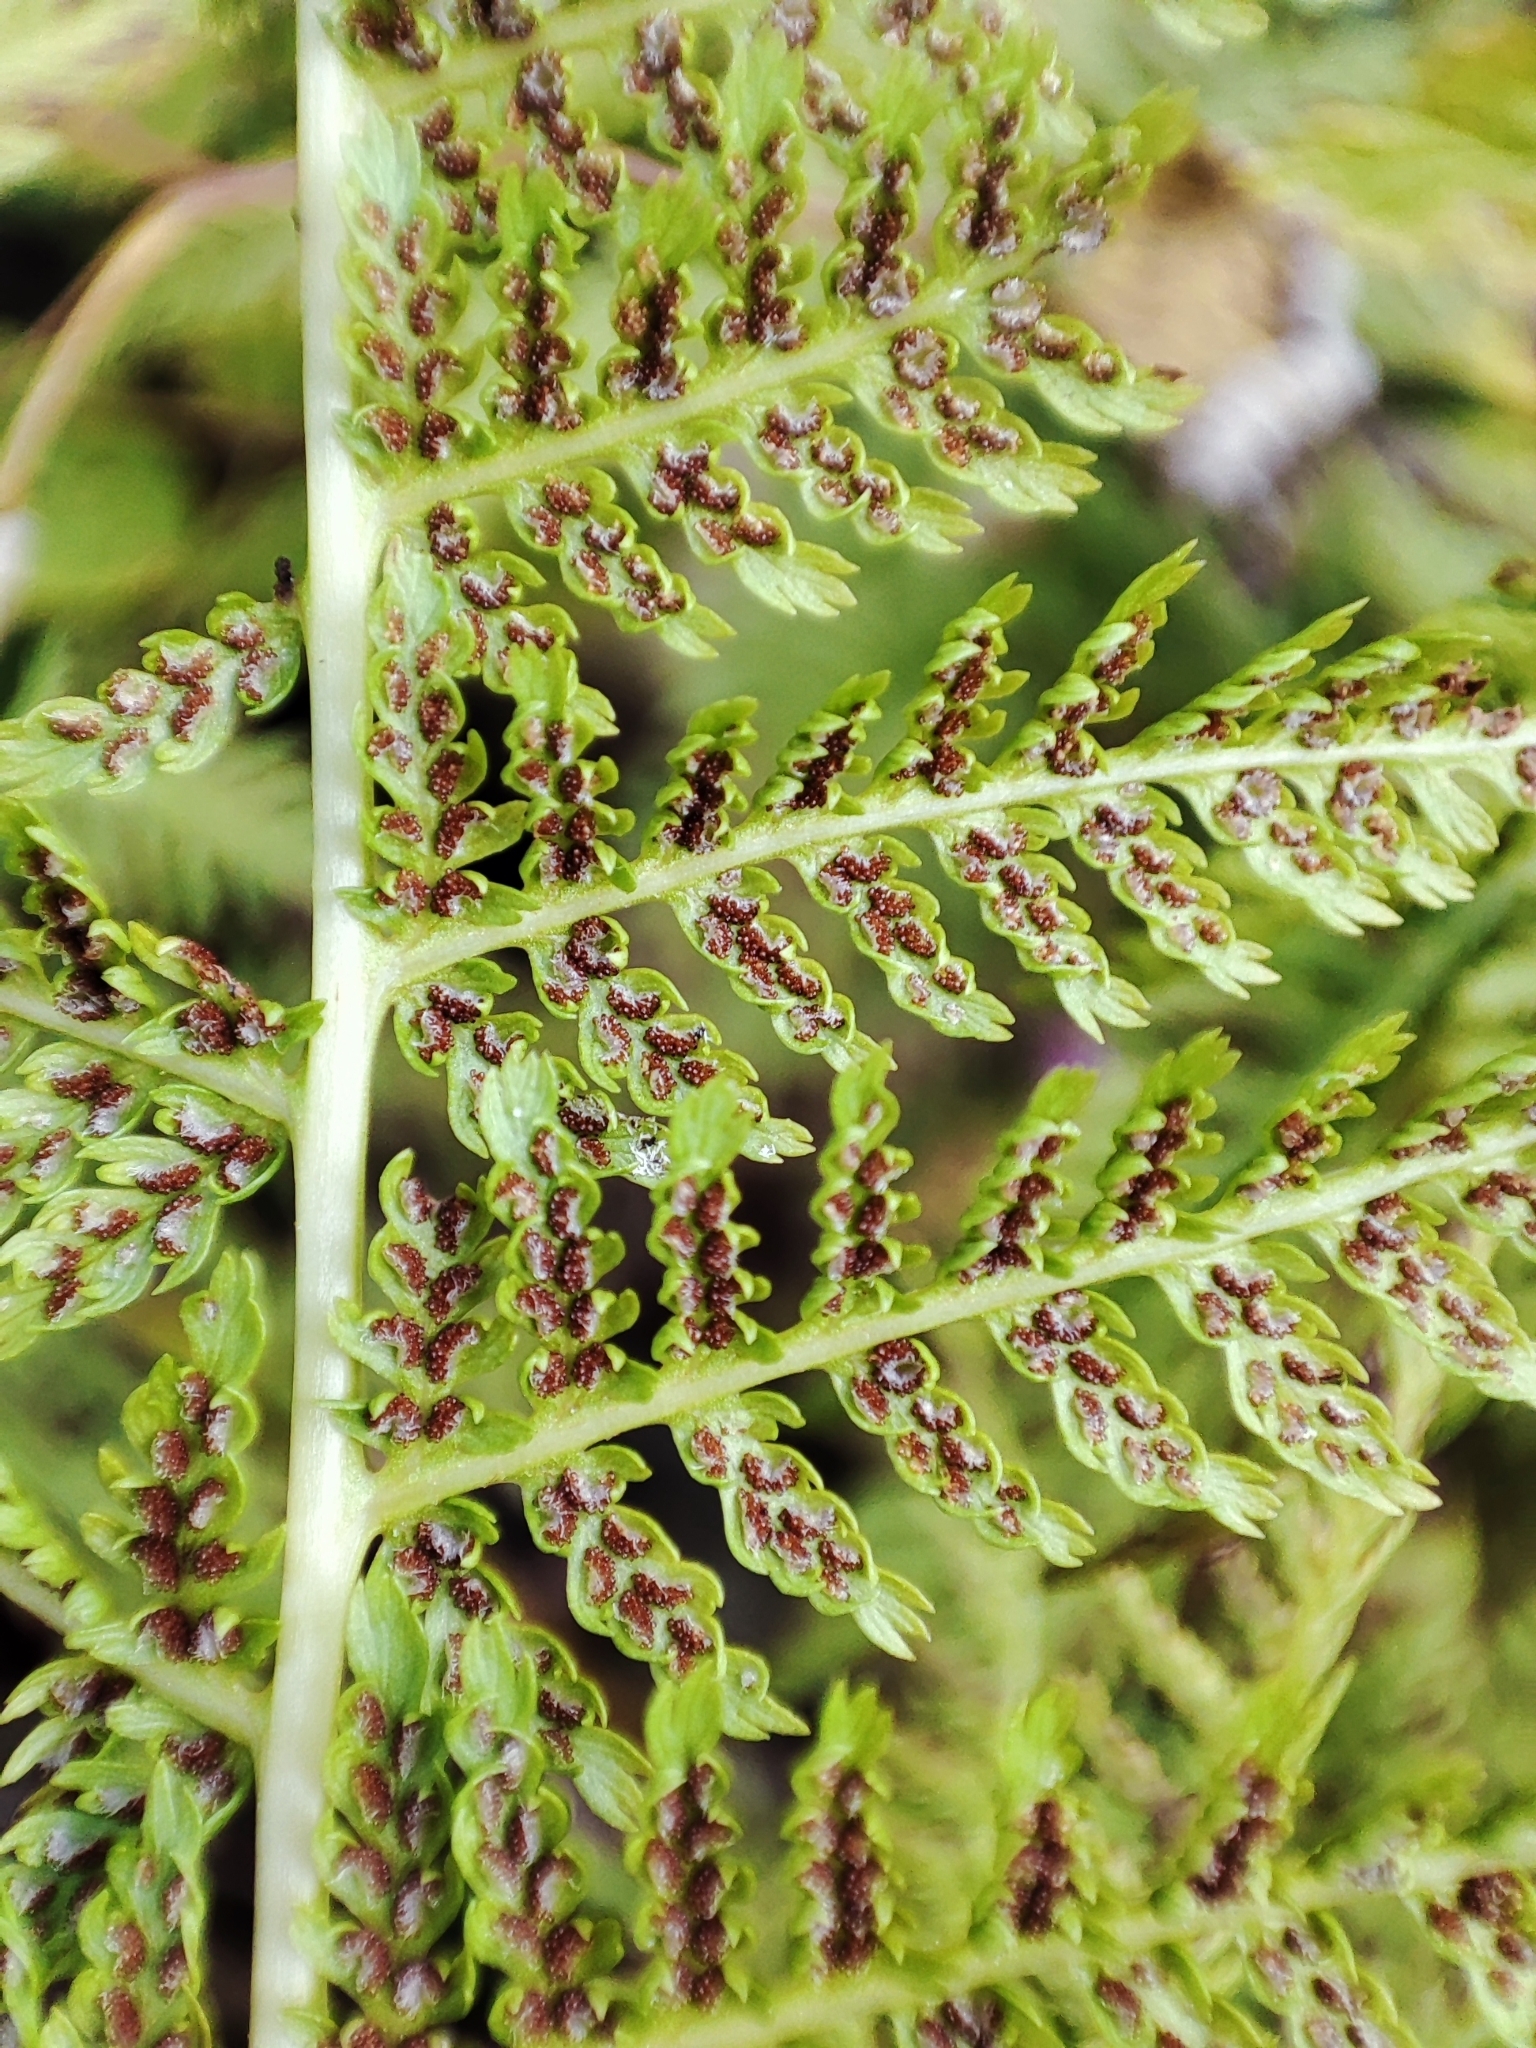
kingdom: Plantae
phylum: Tracheophyta
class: Polypodiopsida
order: Polypodiales
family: Athyriaceae
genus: Athyrium
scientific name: Athyrium filix-femina
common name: Lady fern
